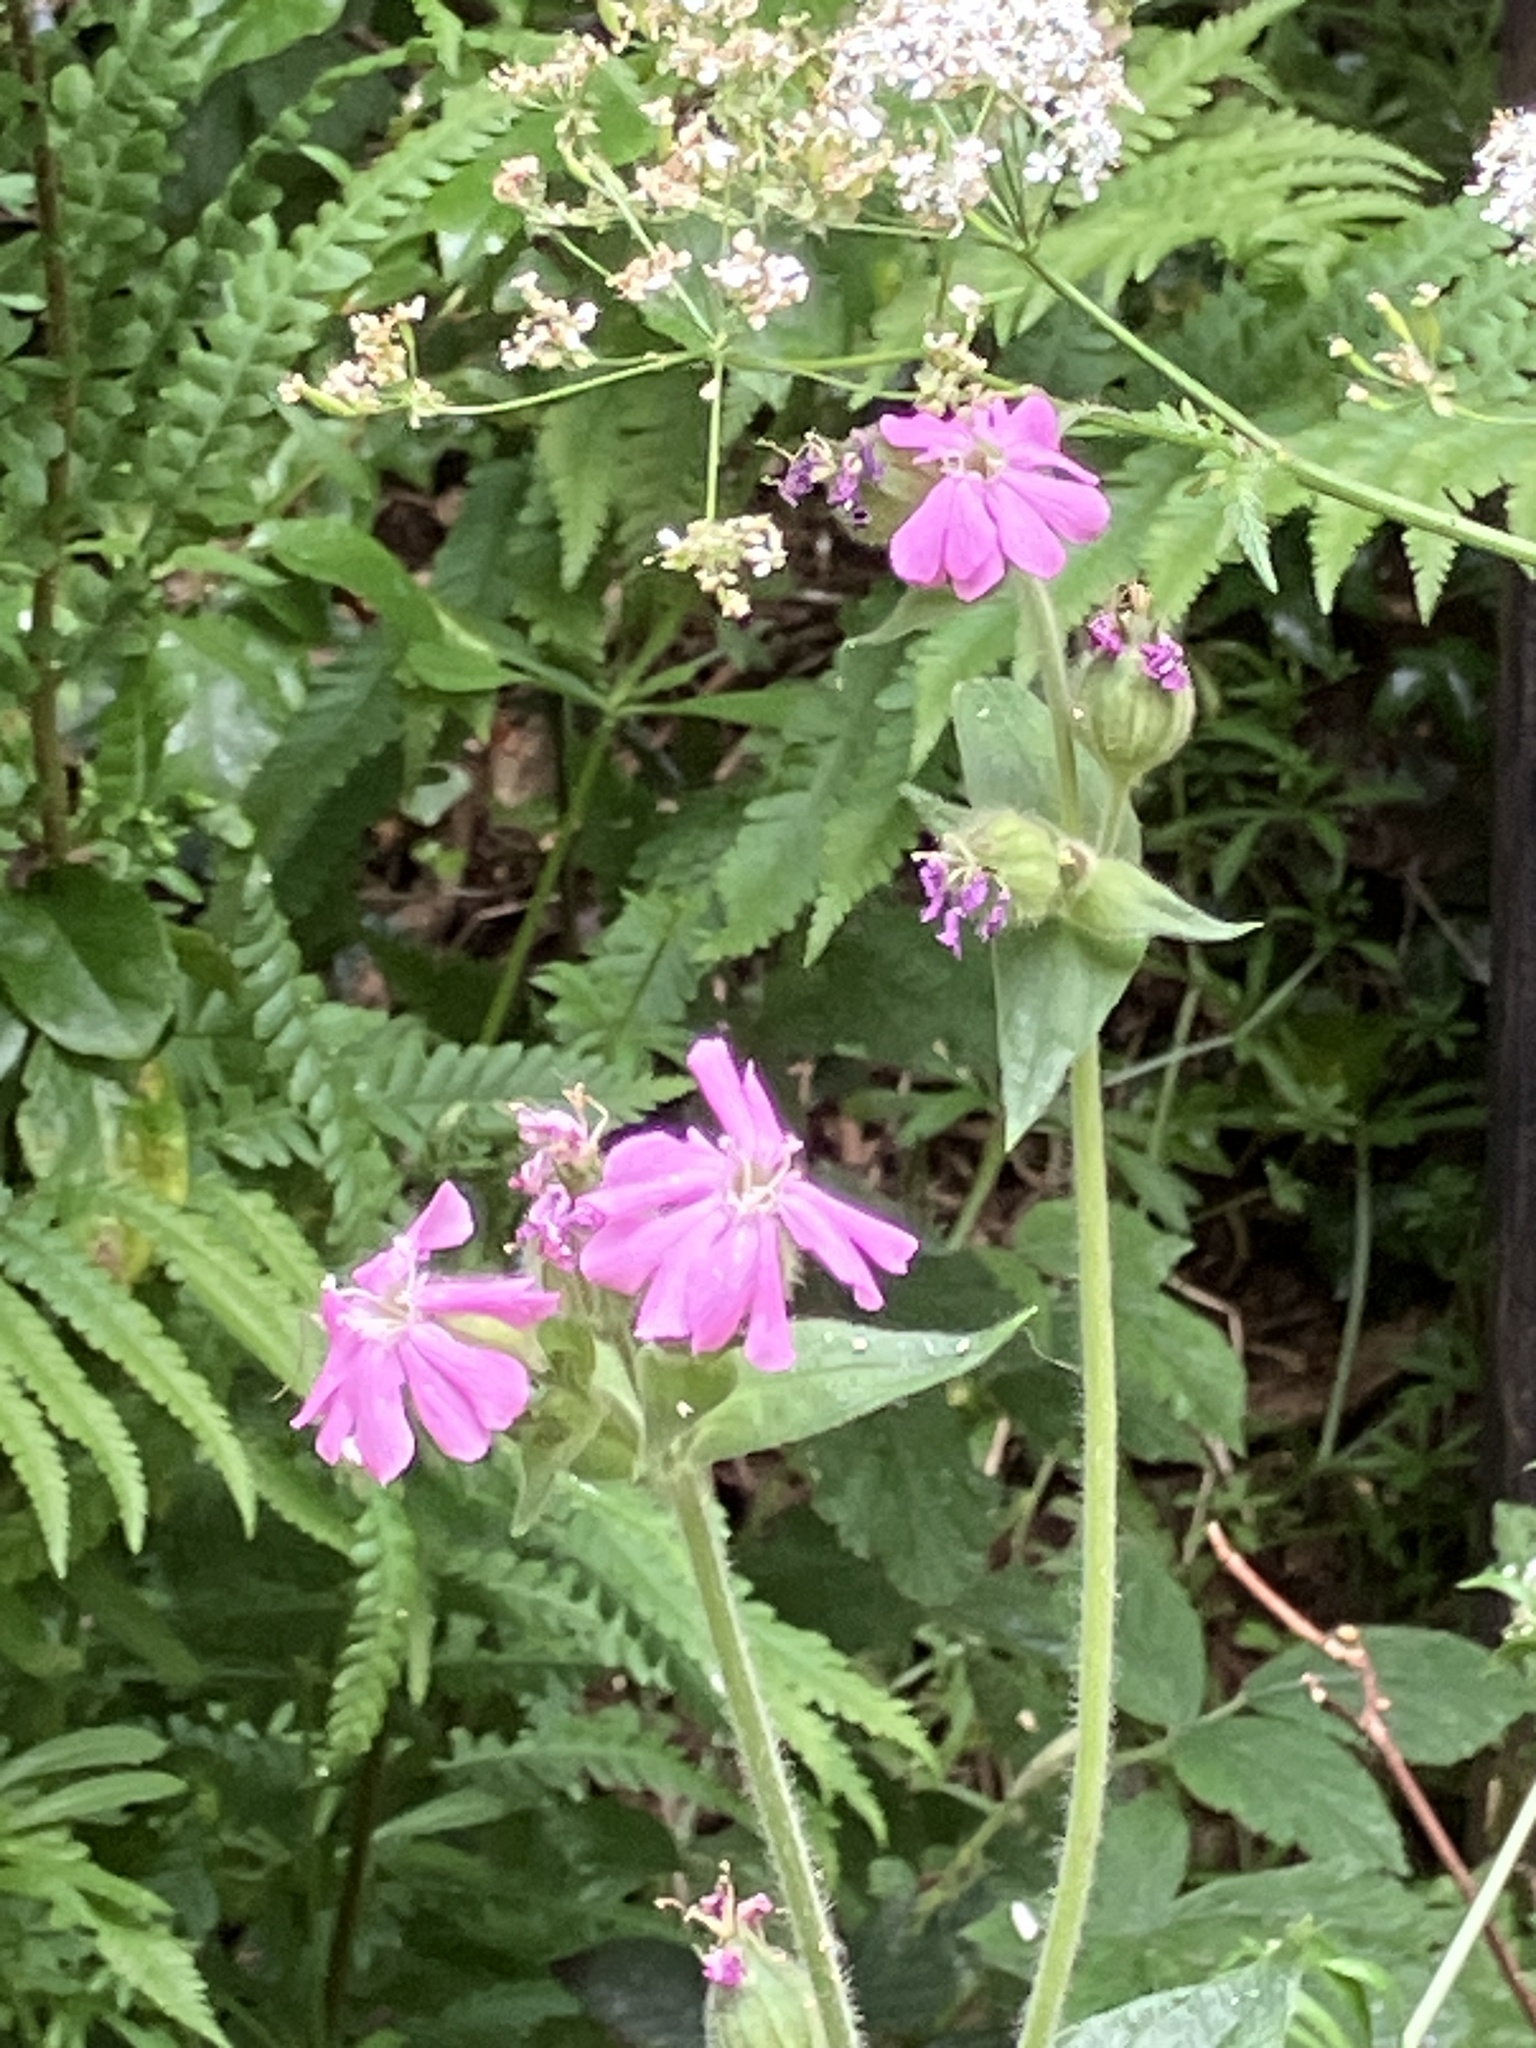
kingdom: Plantae
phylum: Tracheophyta
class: Magnoliopsida
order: Caryophyllales
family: Caryophyllaceae
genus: Silene
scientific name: Silene dioica
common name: Red campion
